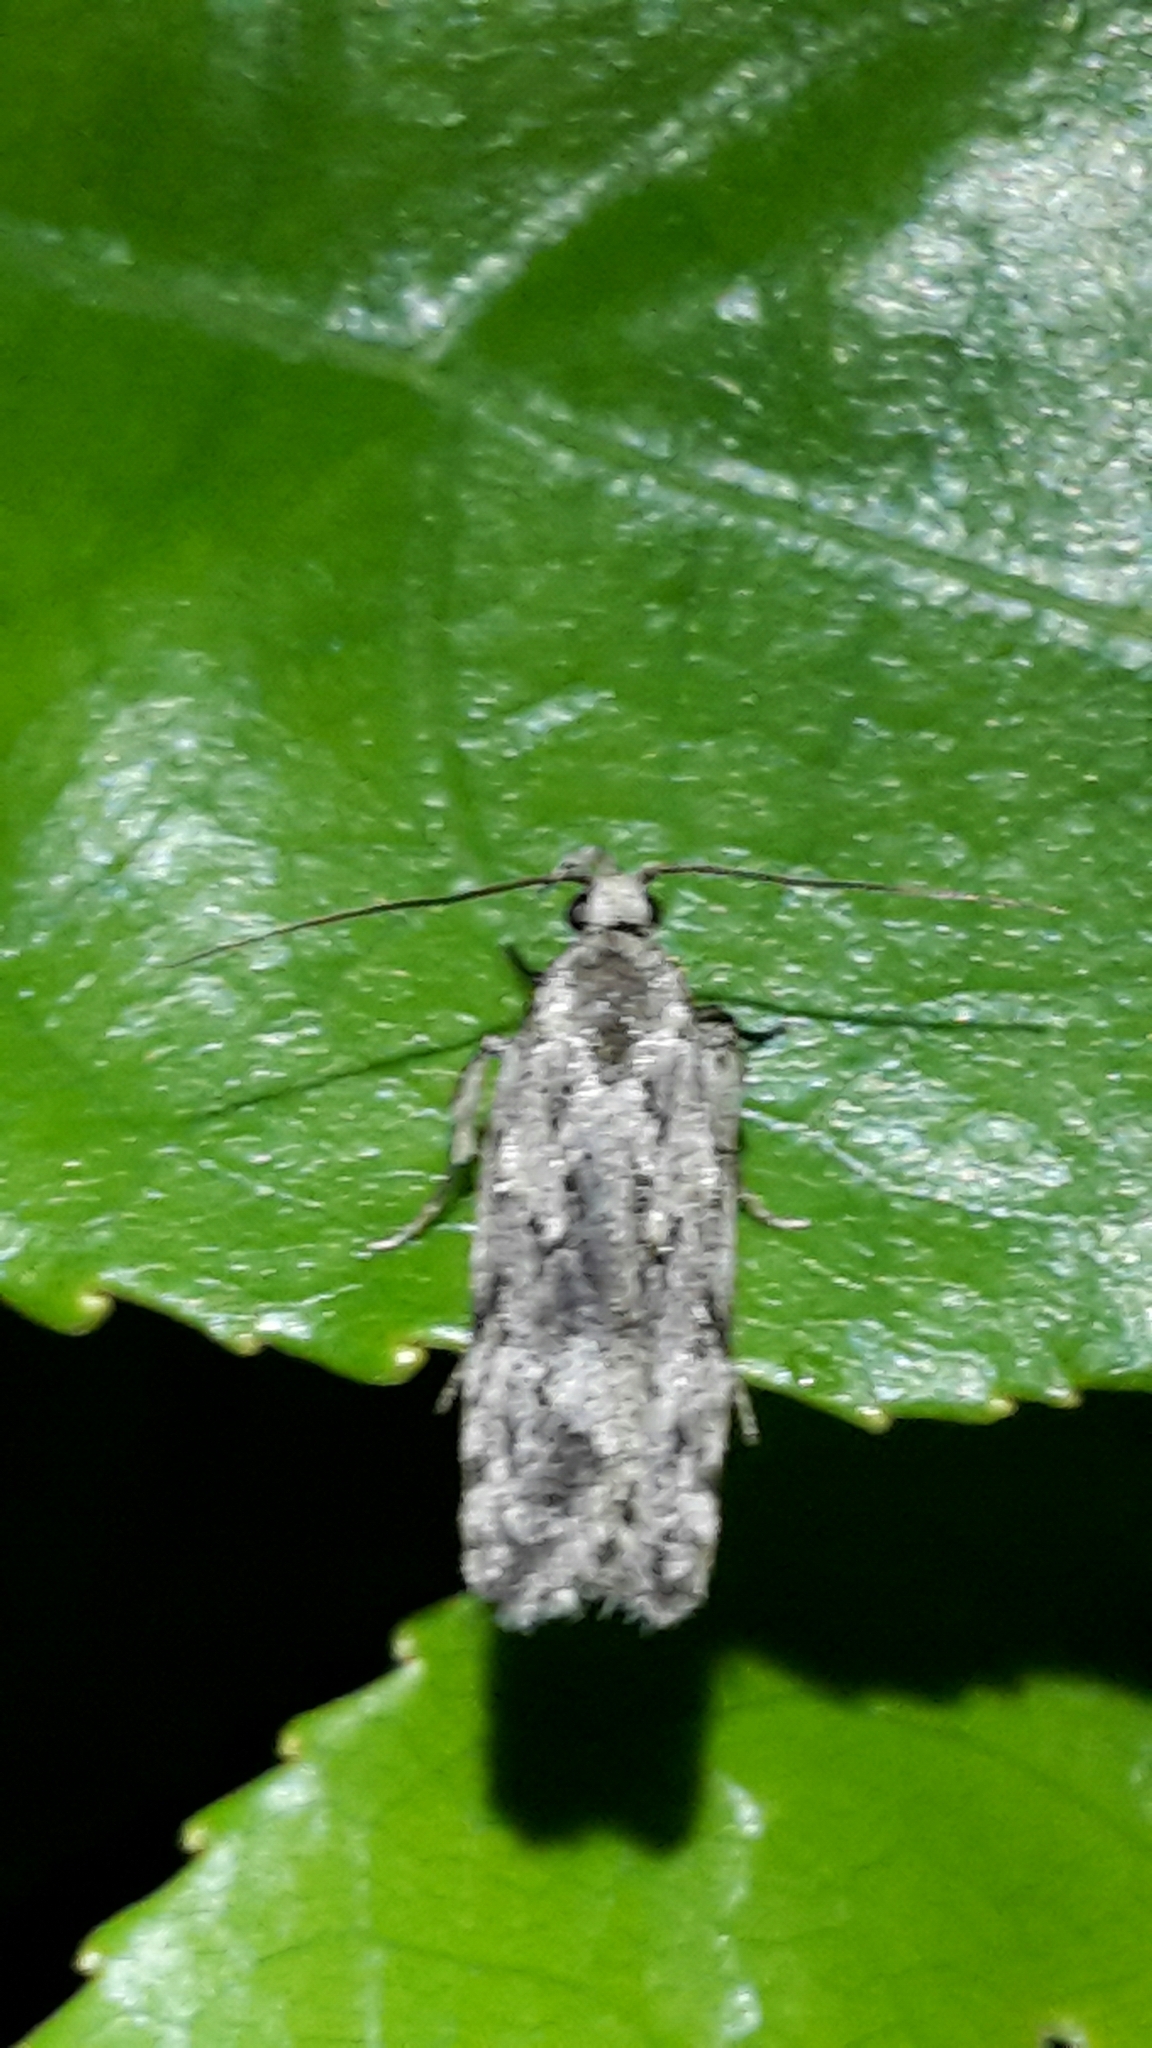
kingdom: Animalia
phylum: Arthropoda
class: Insecta
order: Lepidoptera
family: Oecophoridae
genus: Izatha
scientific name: Izatha apodoxa
